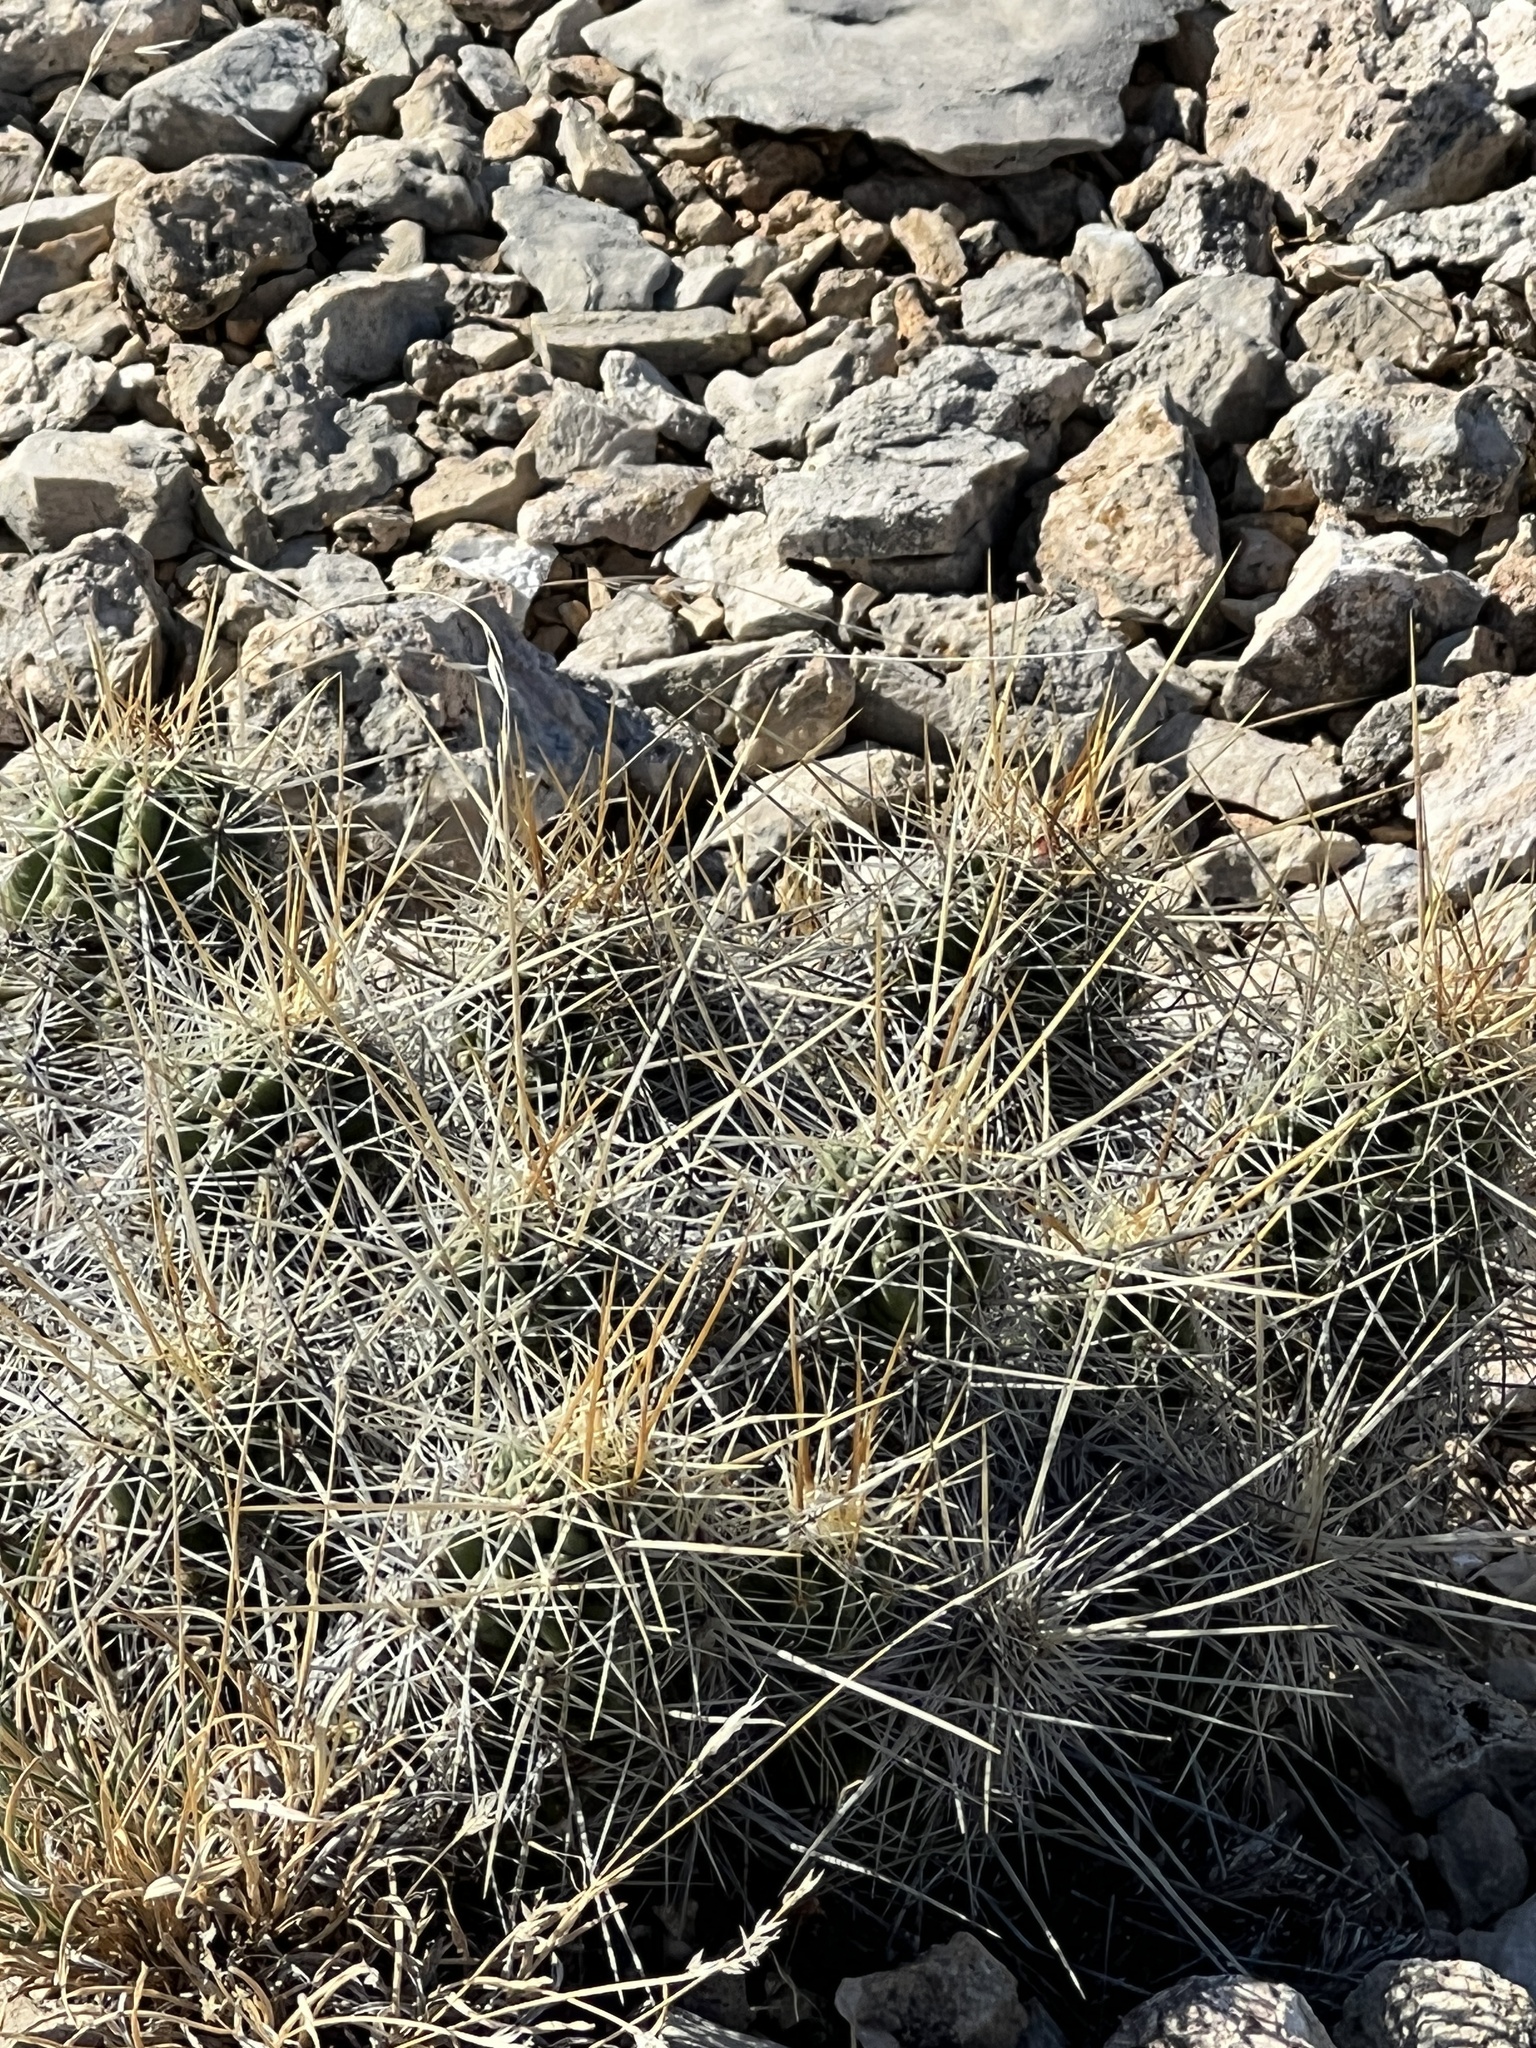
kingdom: Plantae
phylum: Tracheophyta
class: Magnoliopsida
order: Caryophyllales
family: Cactaceae
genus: Echinocereus
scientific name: Echinocereus enneacanthus
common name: Pitaya
